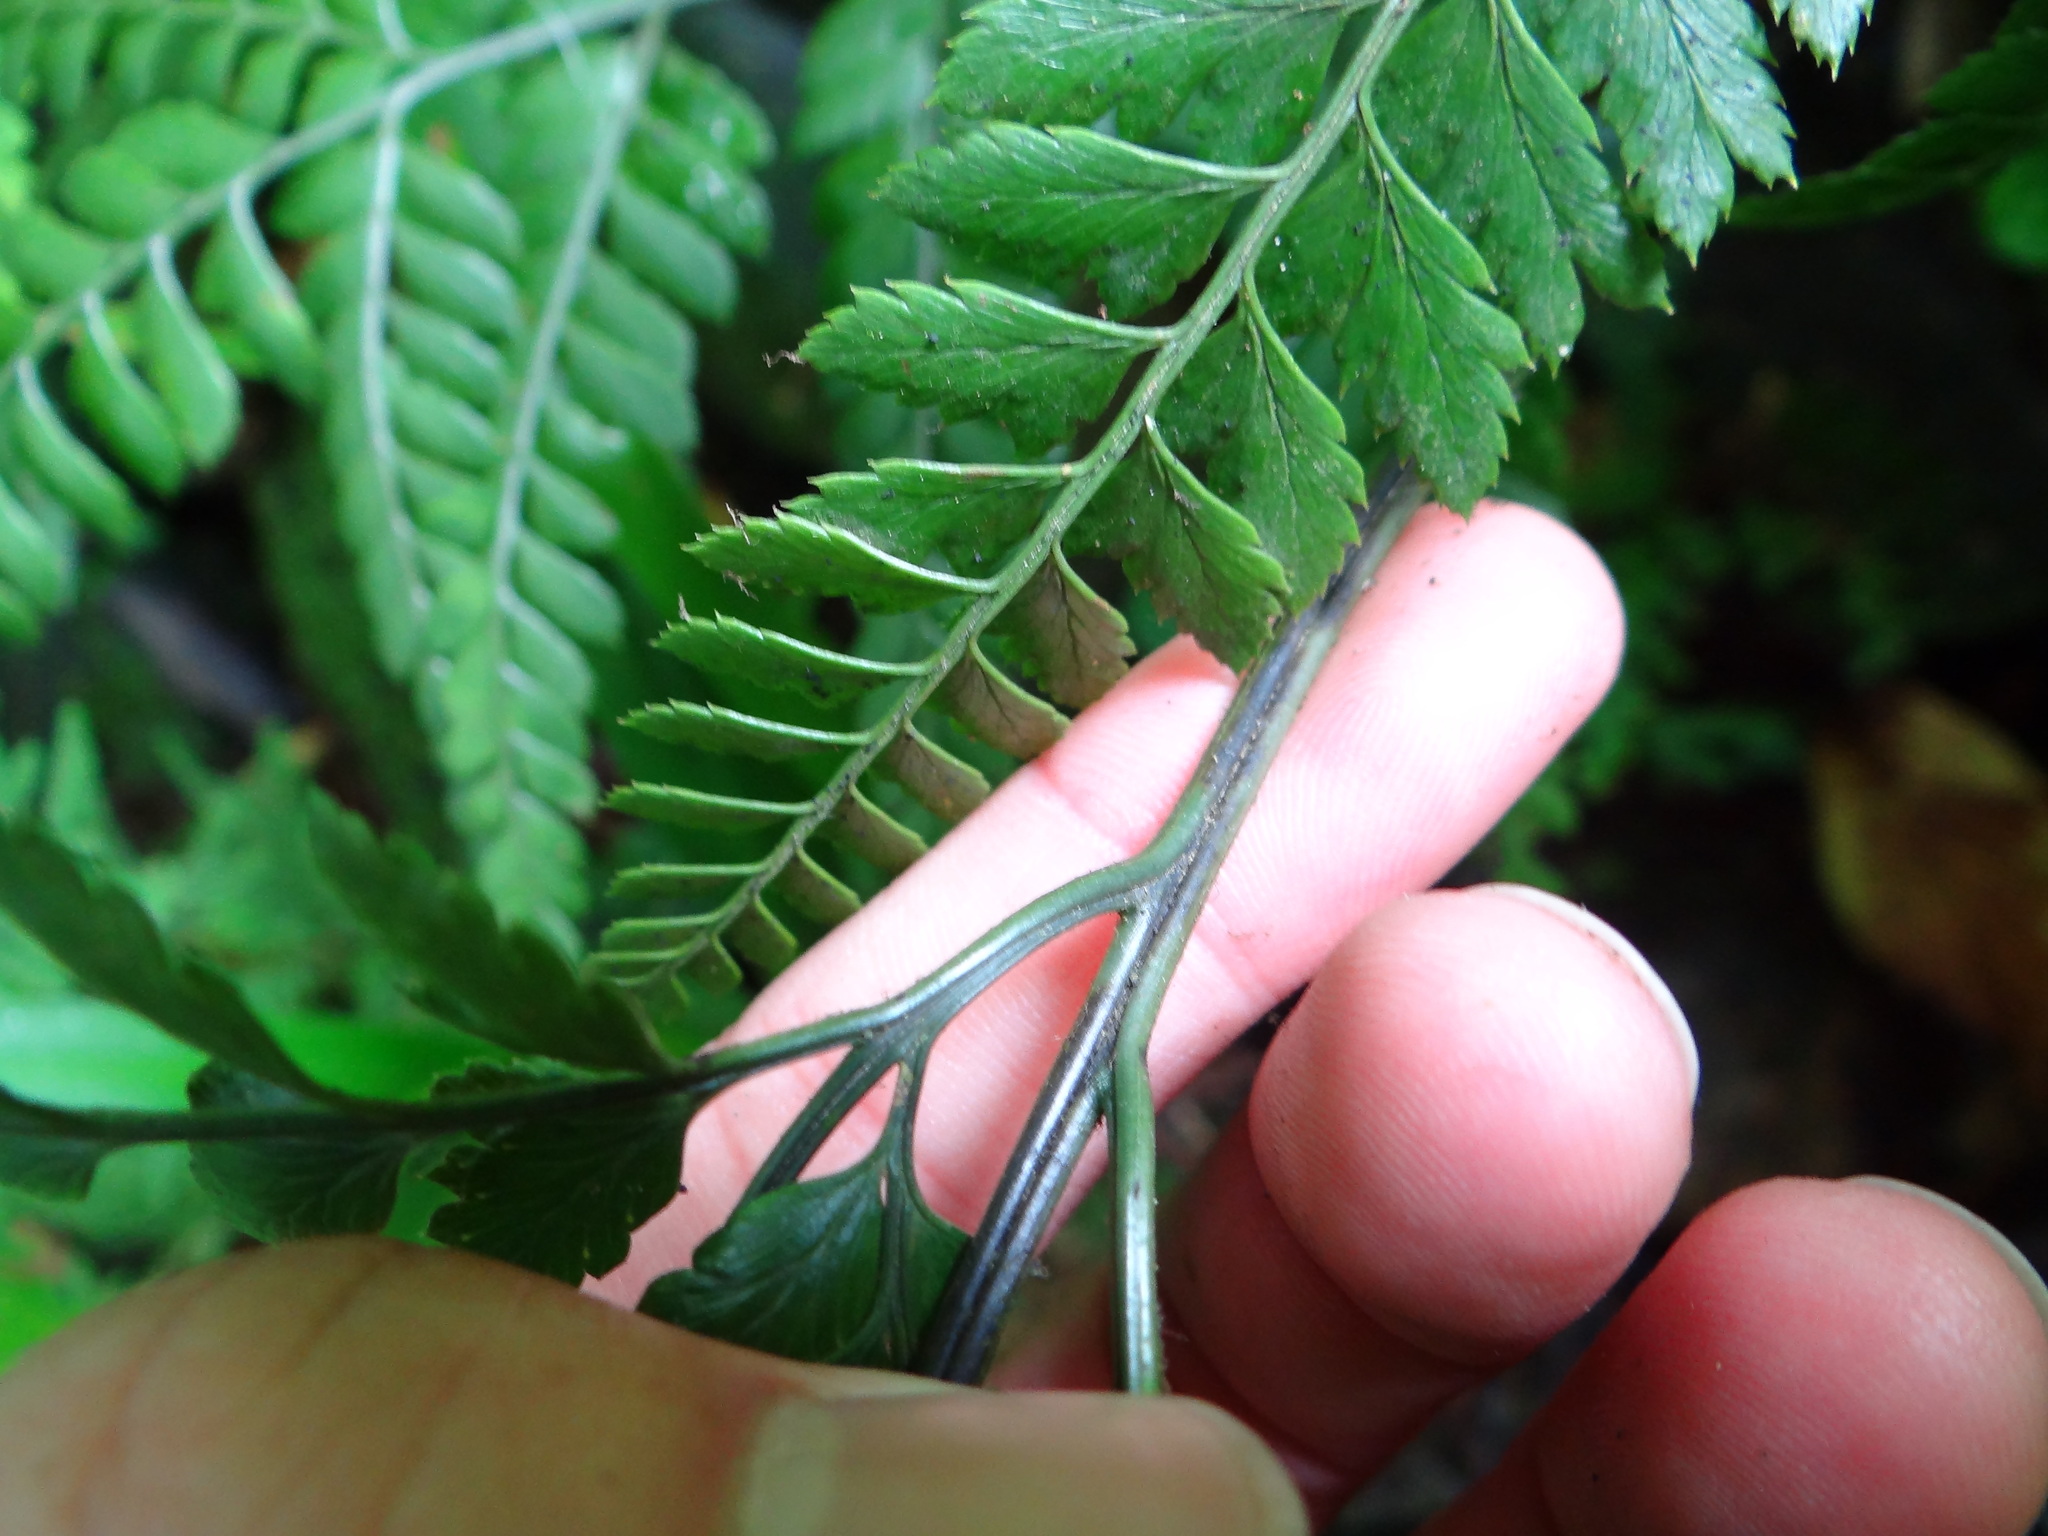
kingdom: Plantae
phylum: Tracheophyta
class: Polypodiopsida
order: Polypodiales
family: Dryopteridaceae
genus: Arachniodes
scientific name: Arachniodes rhomboidea
